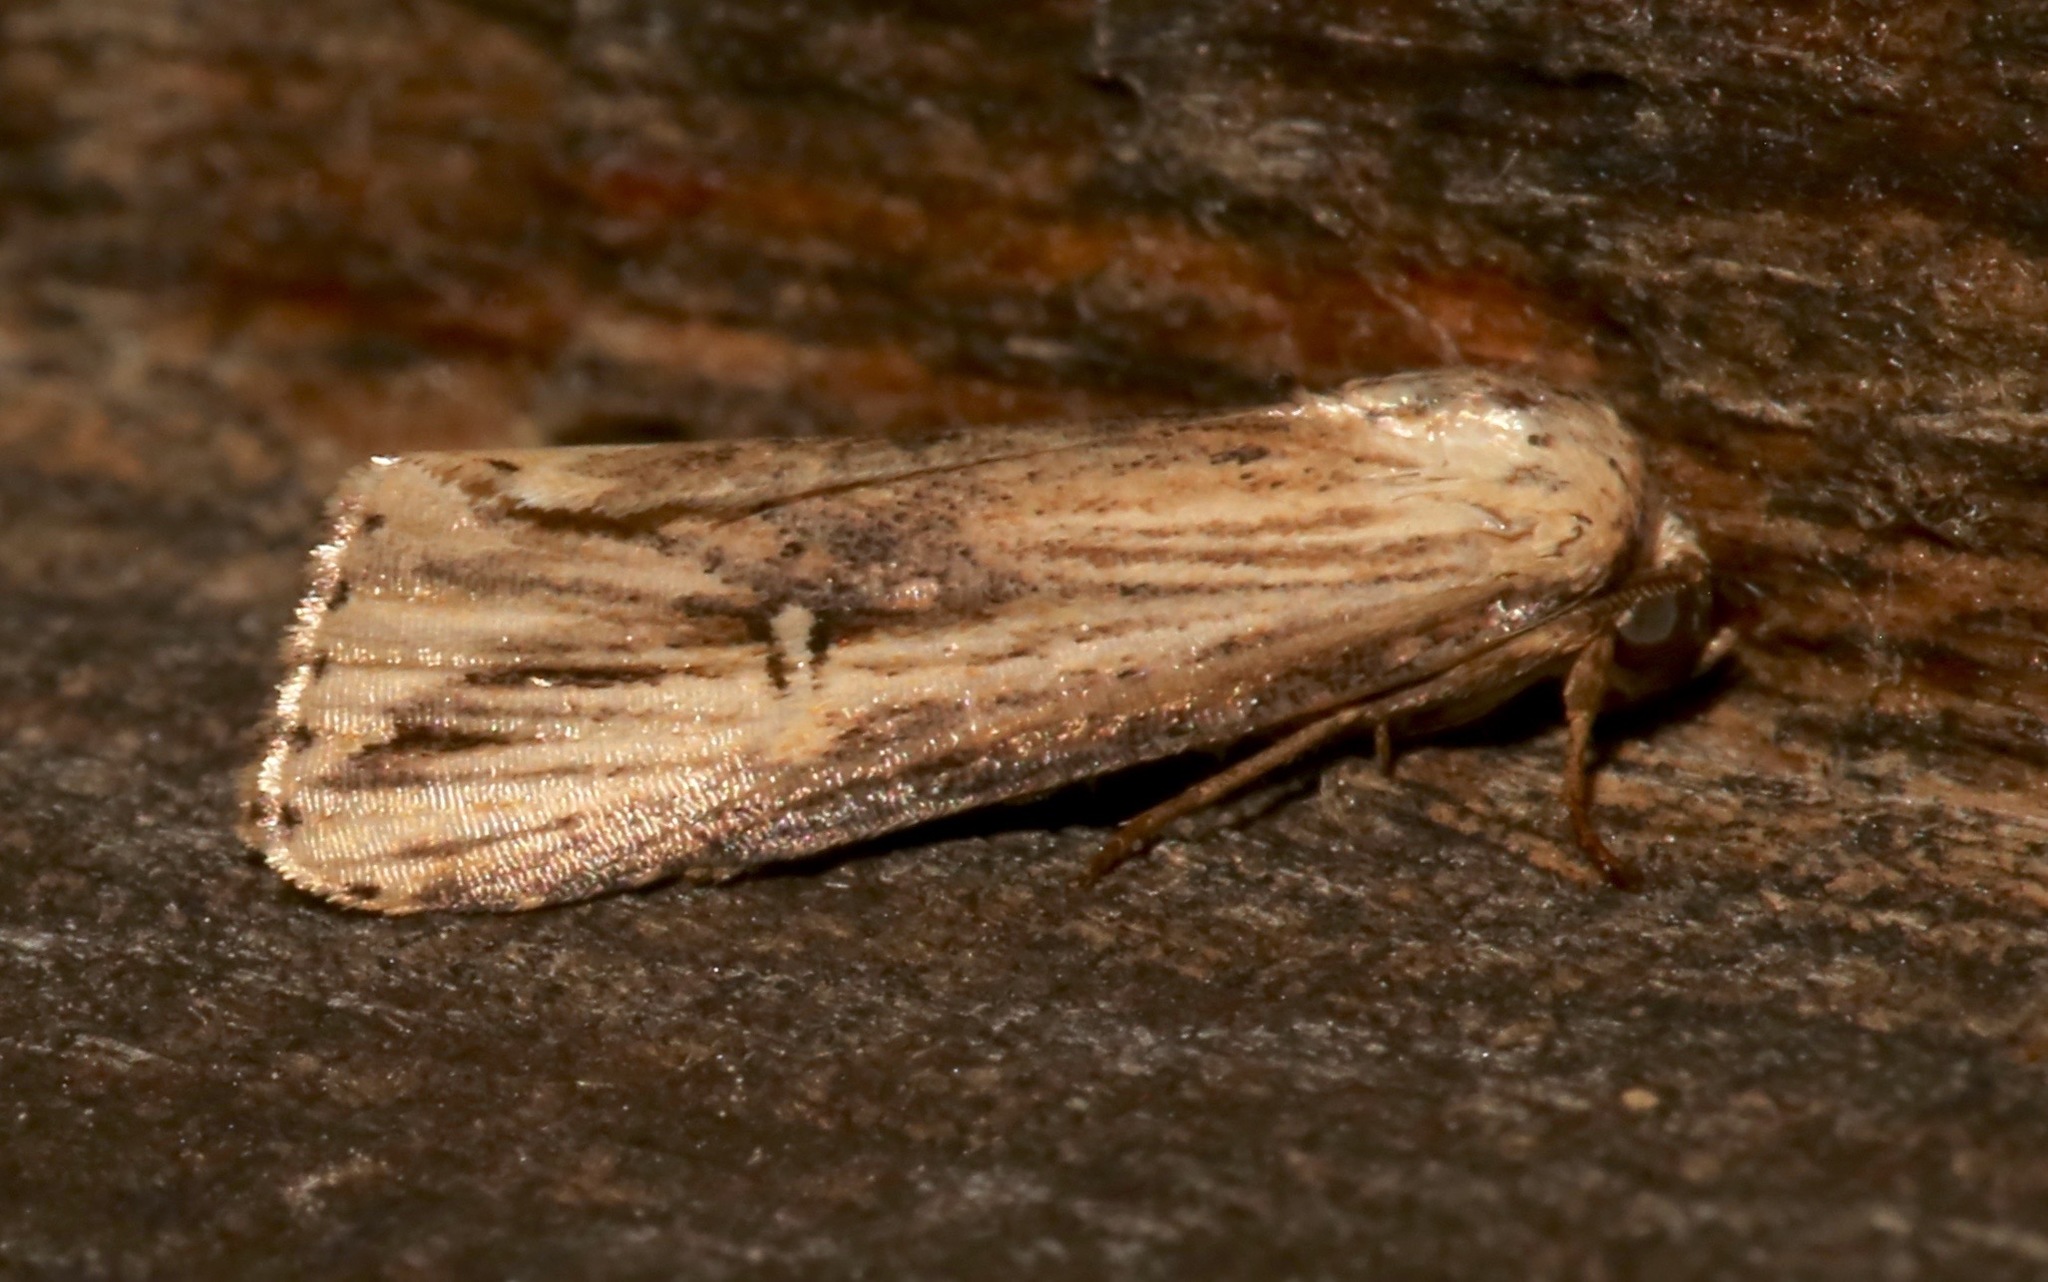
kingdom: Animalia
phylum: Arthropoda
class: Insecta
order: Lepidoptera
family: Noctuidae
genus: Crambodes
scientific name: Crambodes talidiformis
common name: Verbena moth
